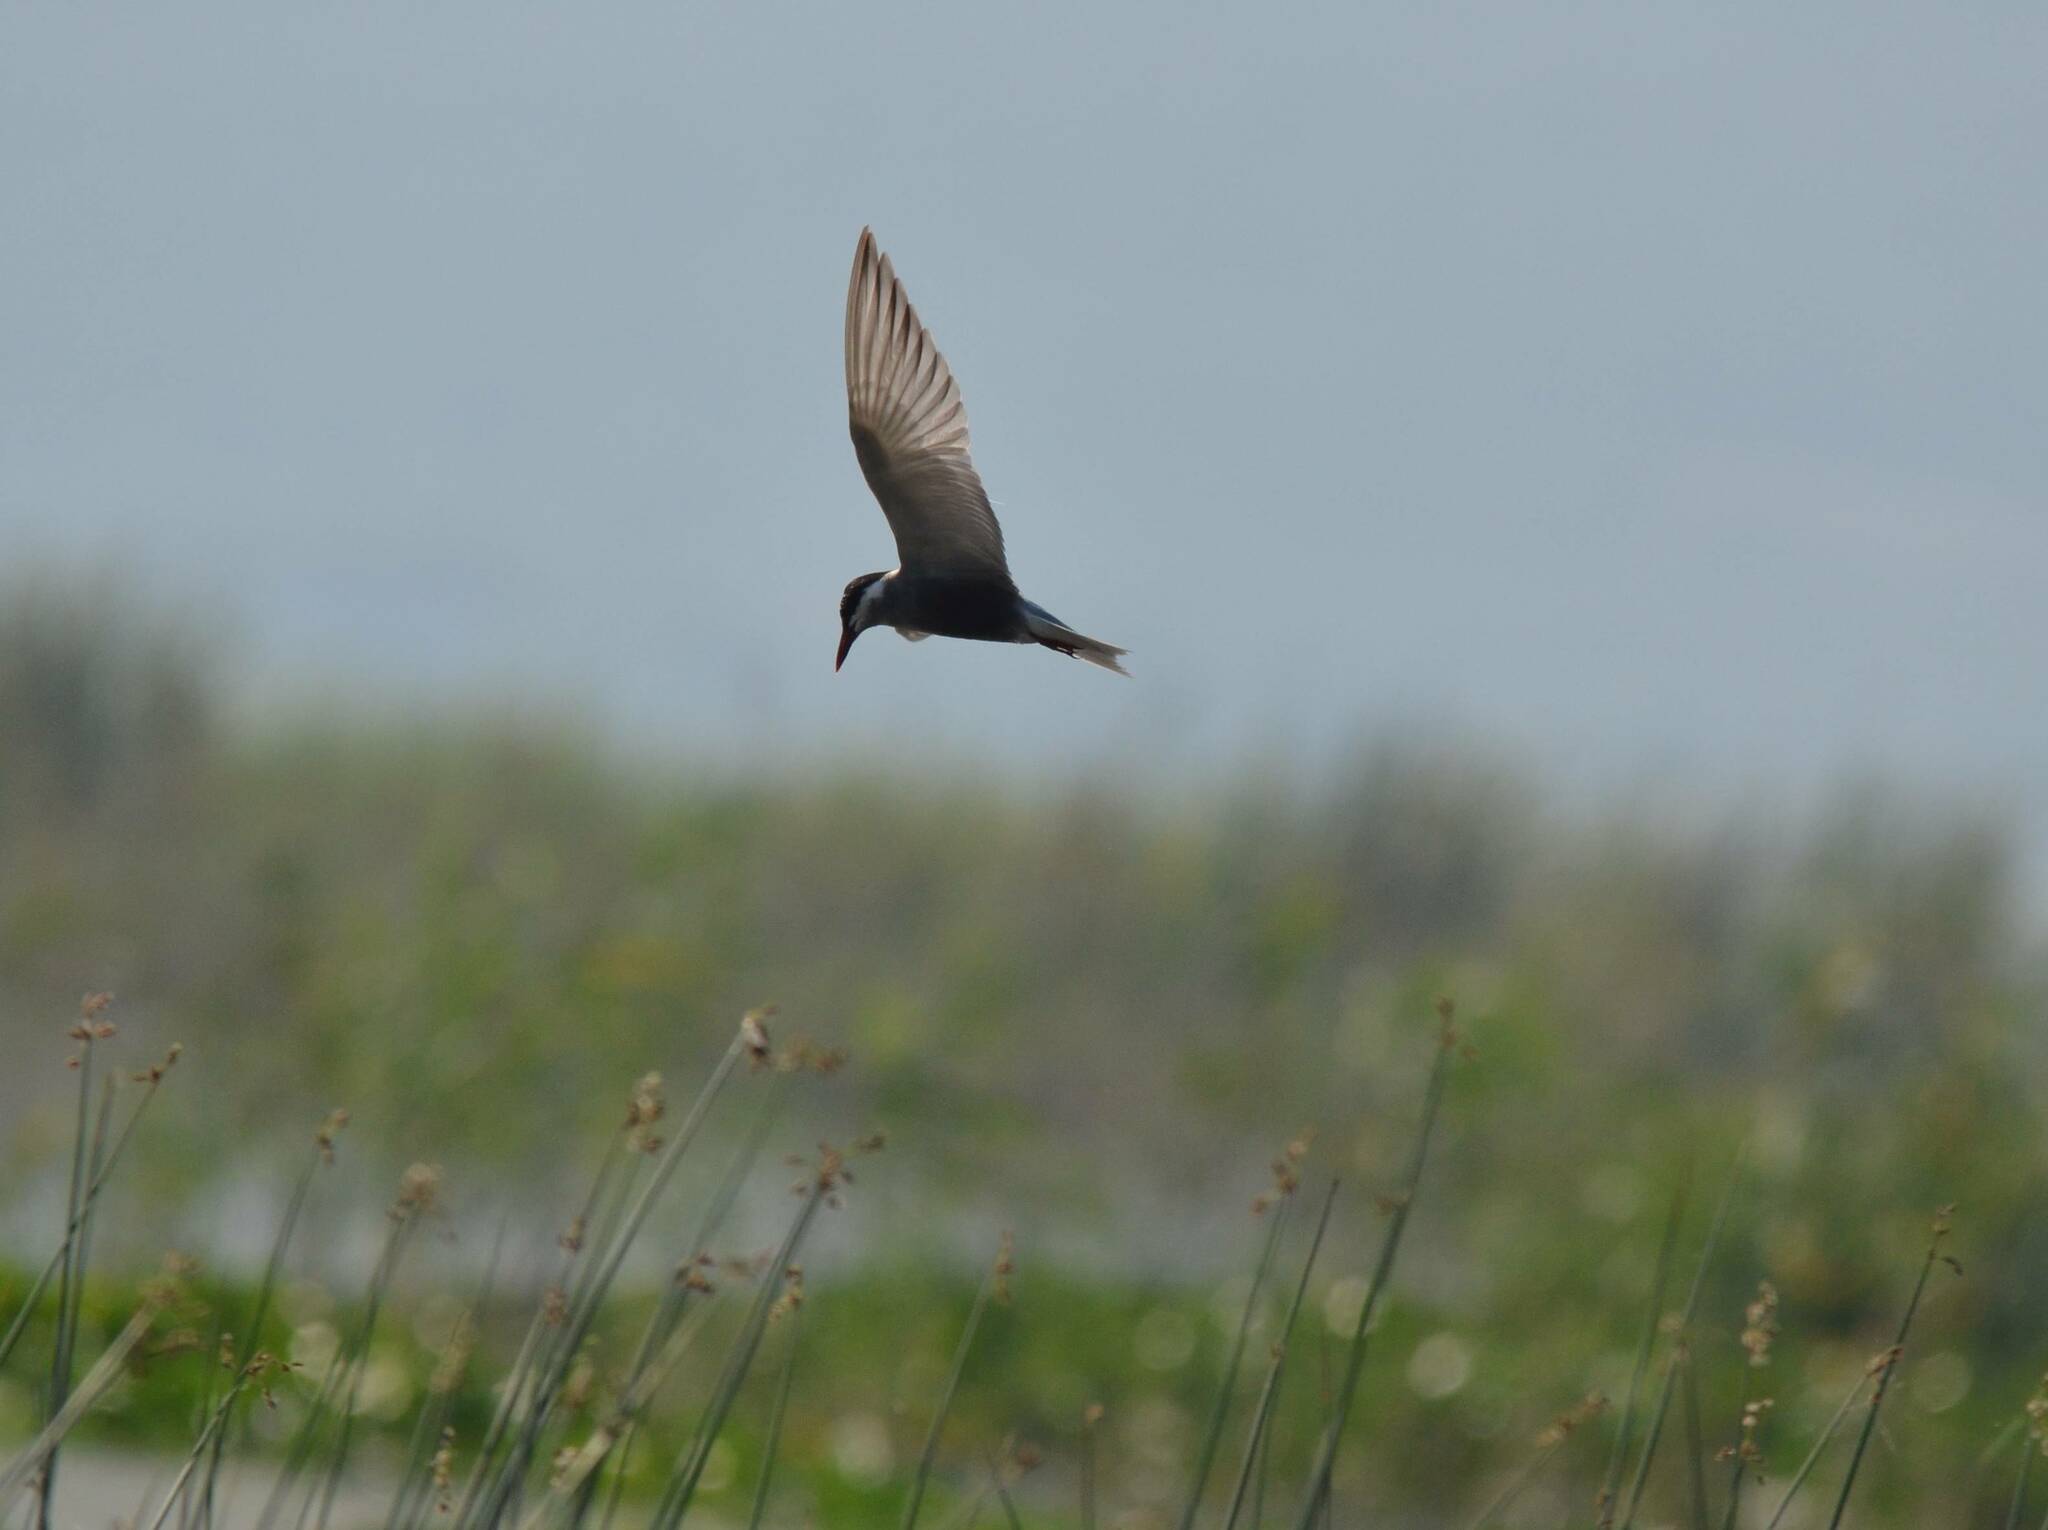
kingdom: Animalia
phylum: Chordata
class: Aves
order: Charadriiformes
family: Laridae
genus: Chlidonias
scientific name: Chlidonias hybrida
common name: Whiskered tern
